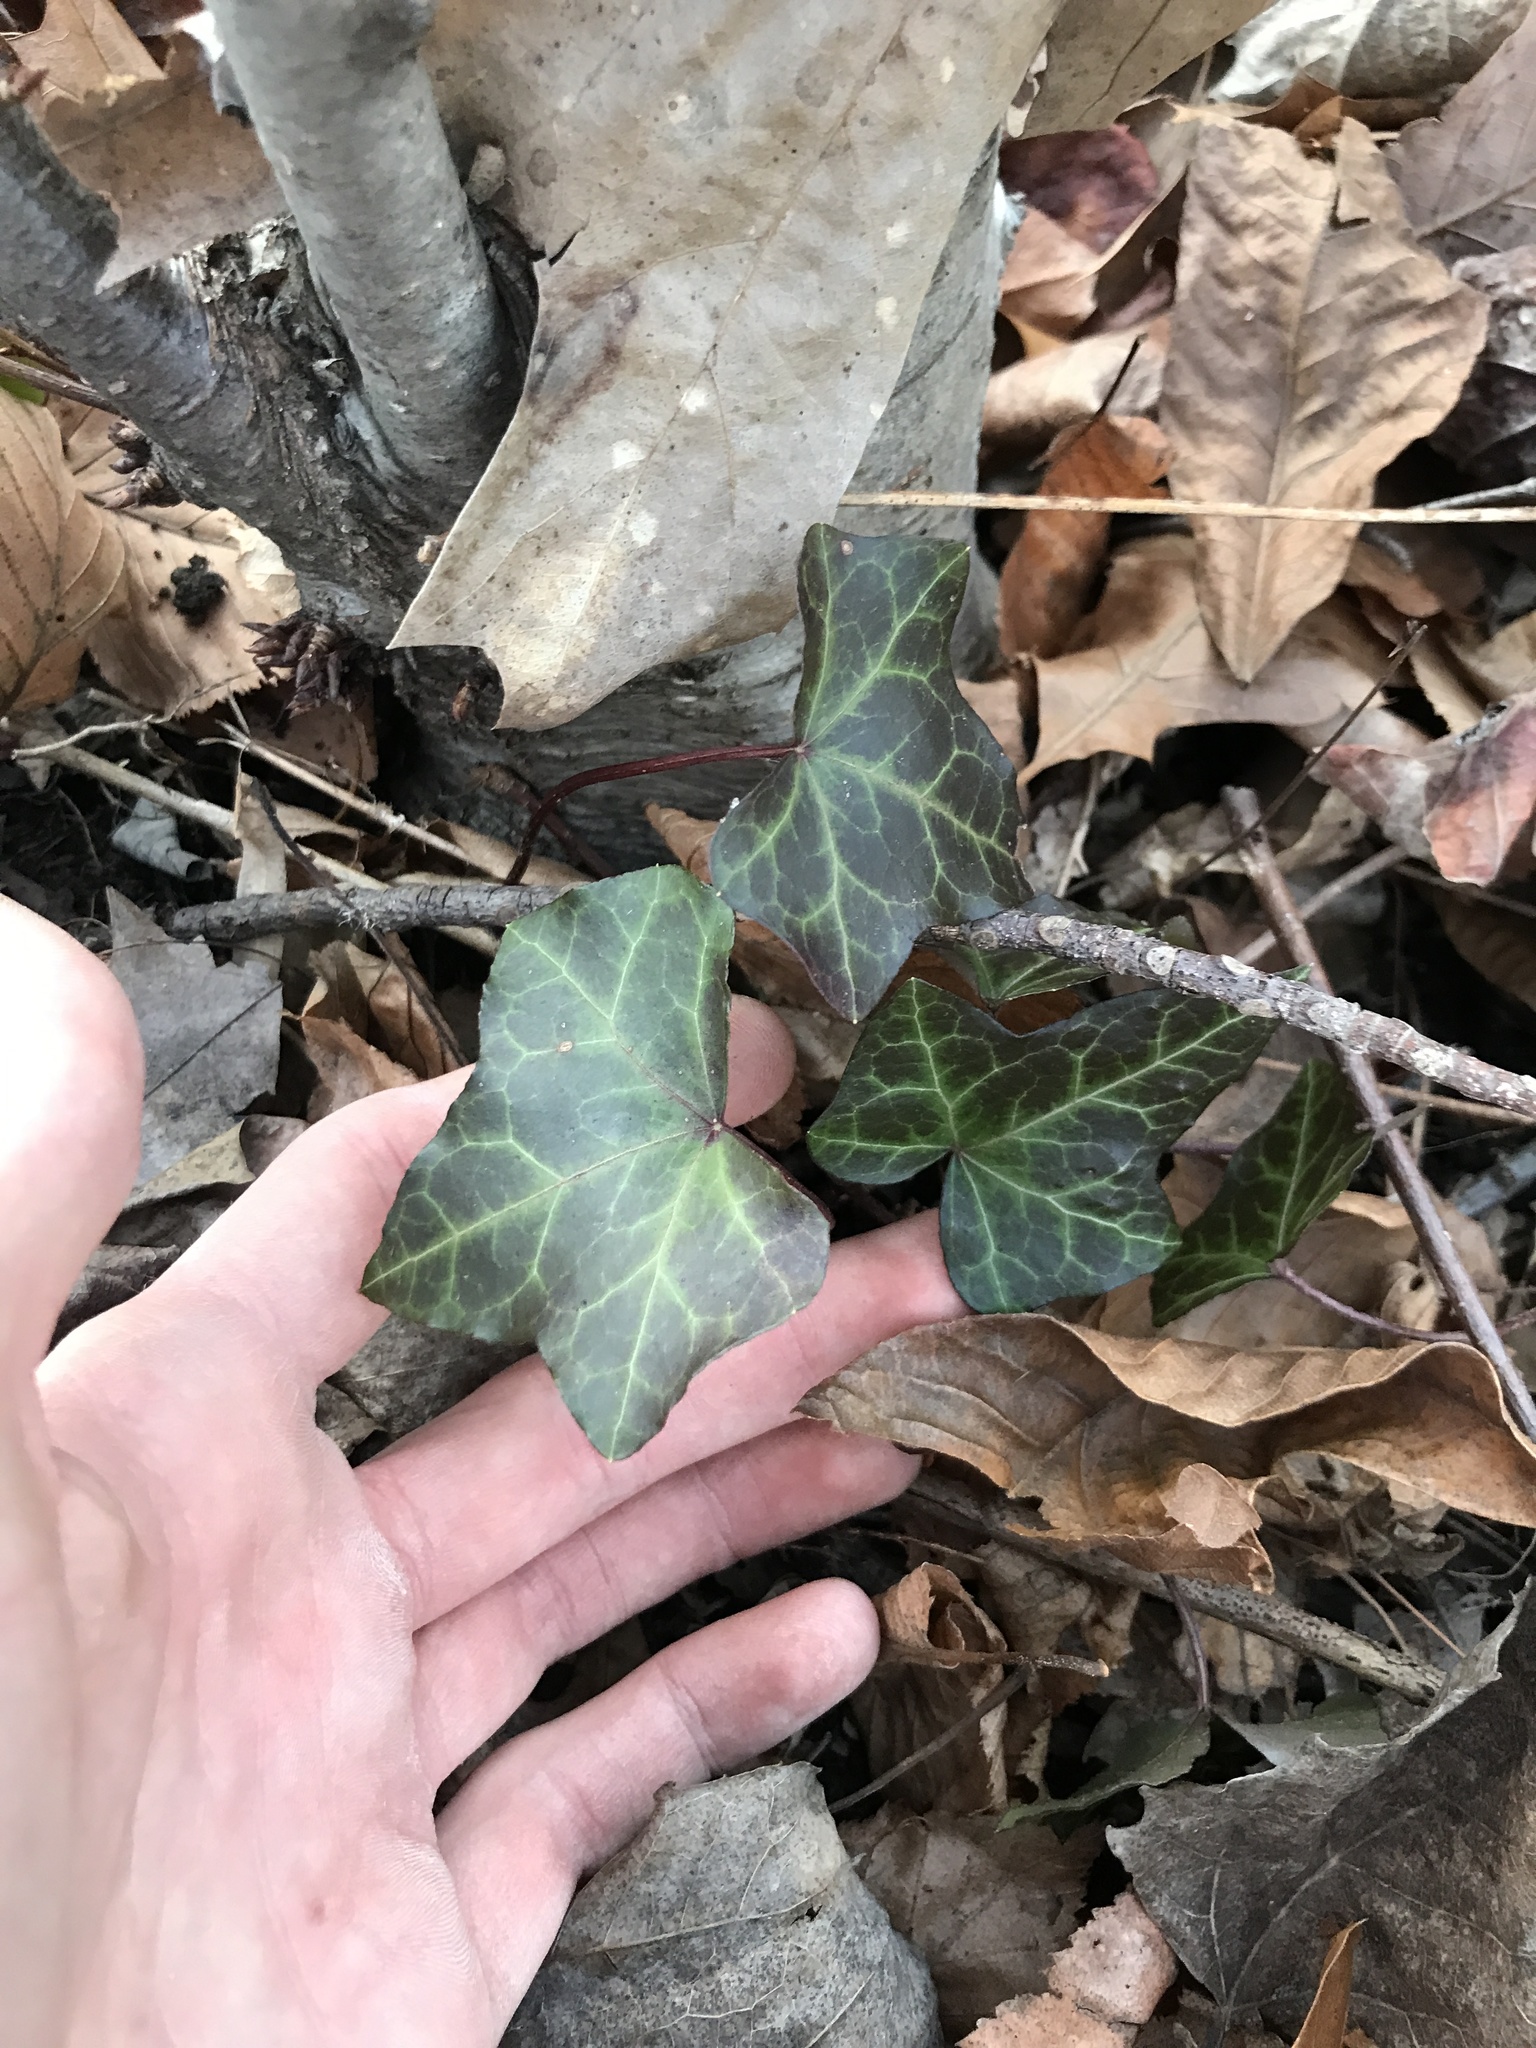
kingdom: Plantae
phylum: Tracheophyta
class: Magnoliopsida
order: Apiales
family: Araliaceae
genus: Hedera
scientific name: Hedera helix
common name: Ivy
